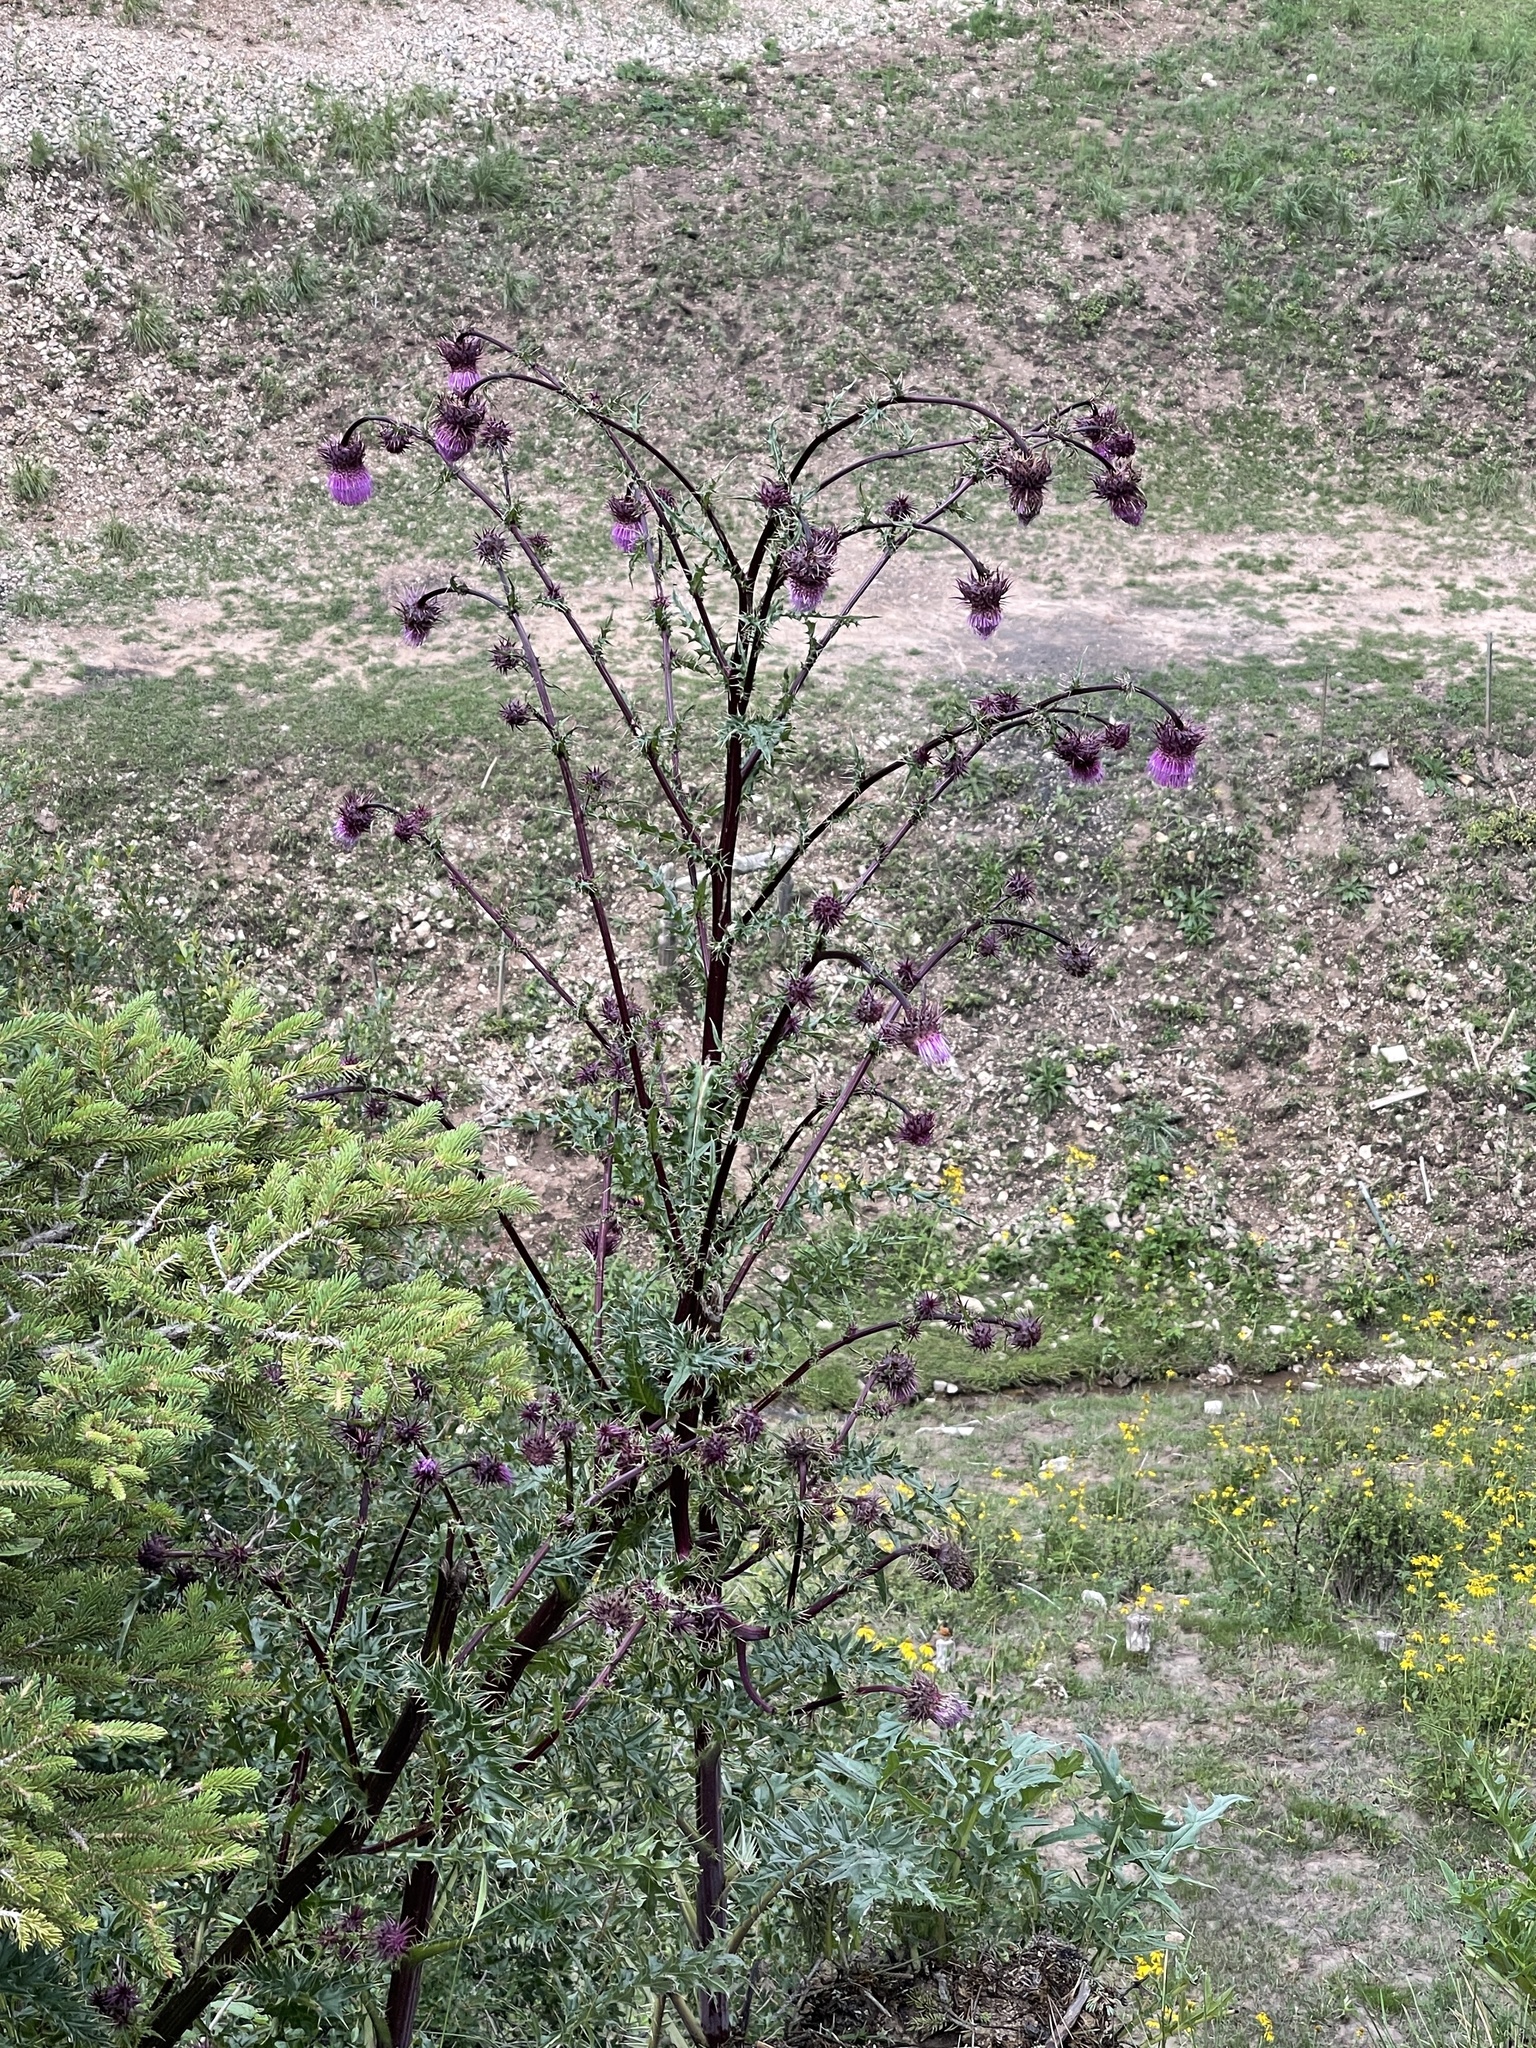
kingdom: Plantae
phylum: Tracheophyta
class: Magnoliopsida
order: Asterales
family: Asteraceae
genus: Cirsium
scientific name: Cirsium vinaceum
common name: Sacramento mountain thistle
